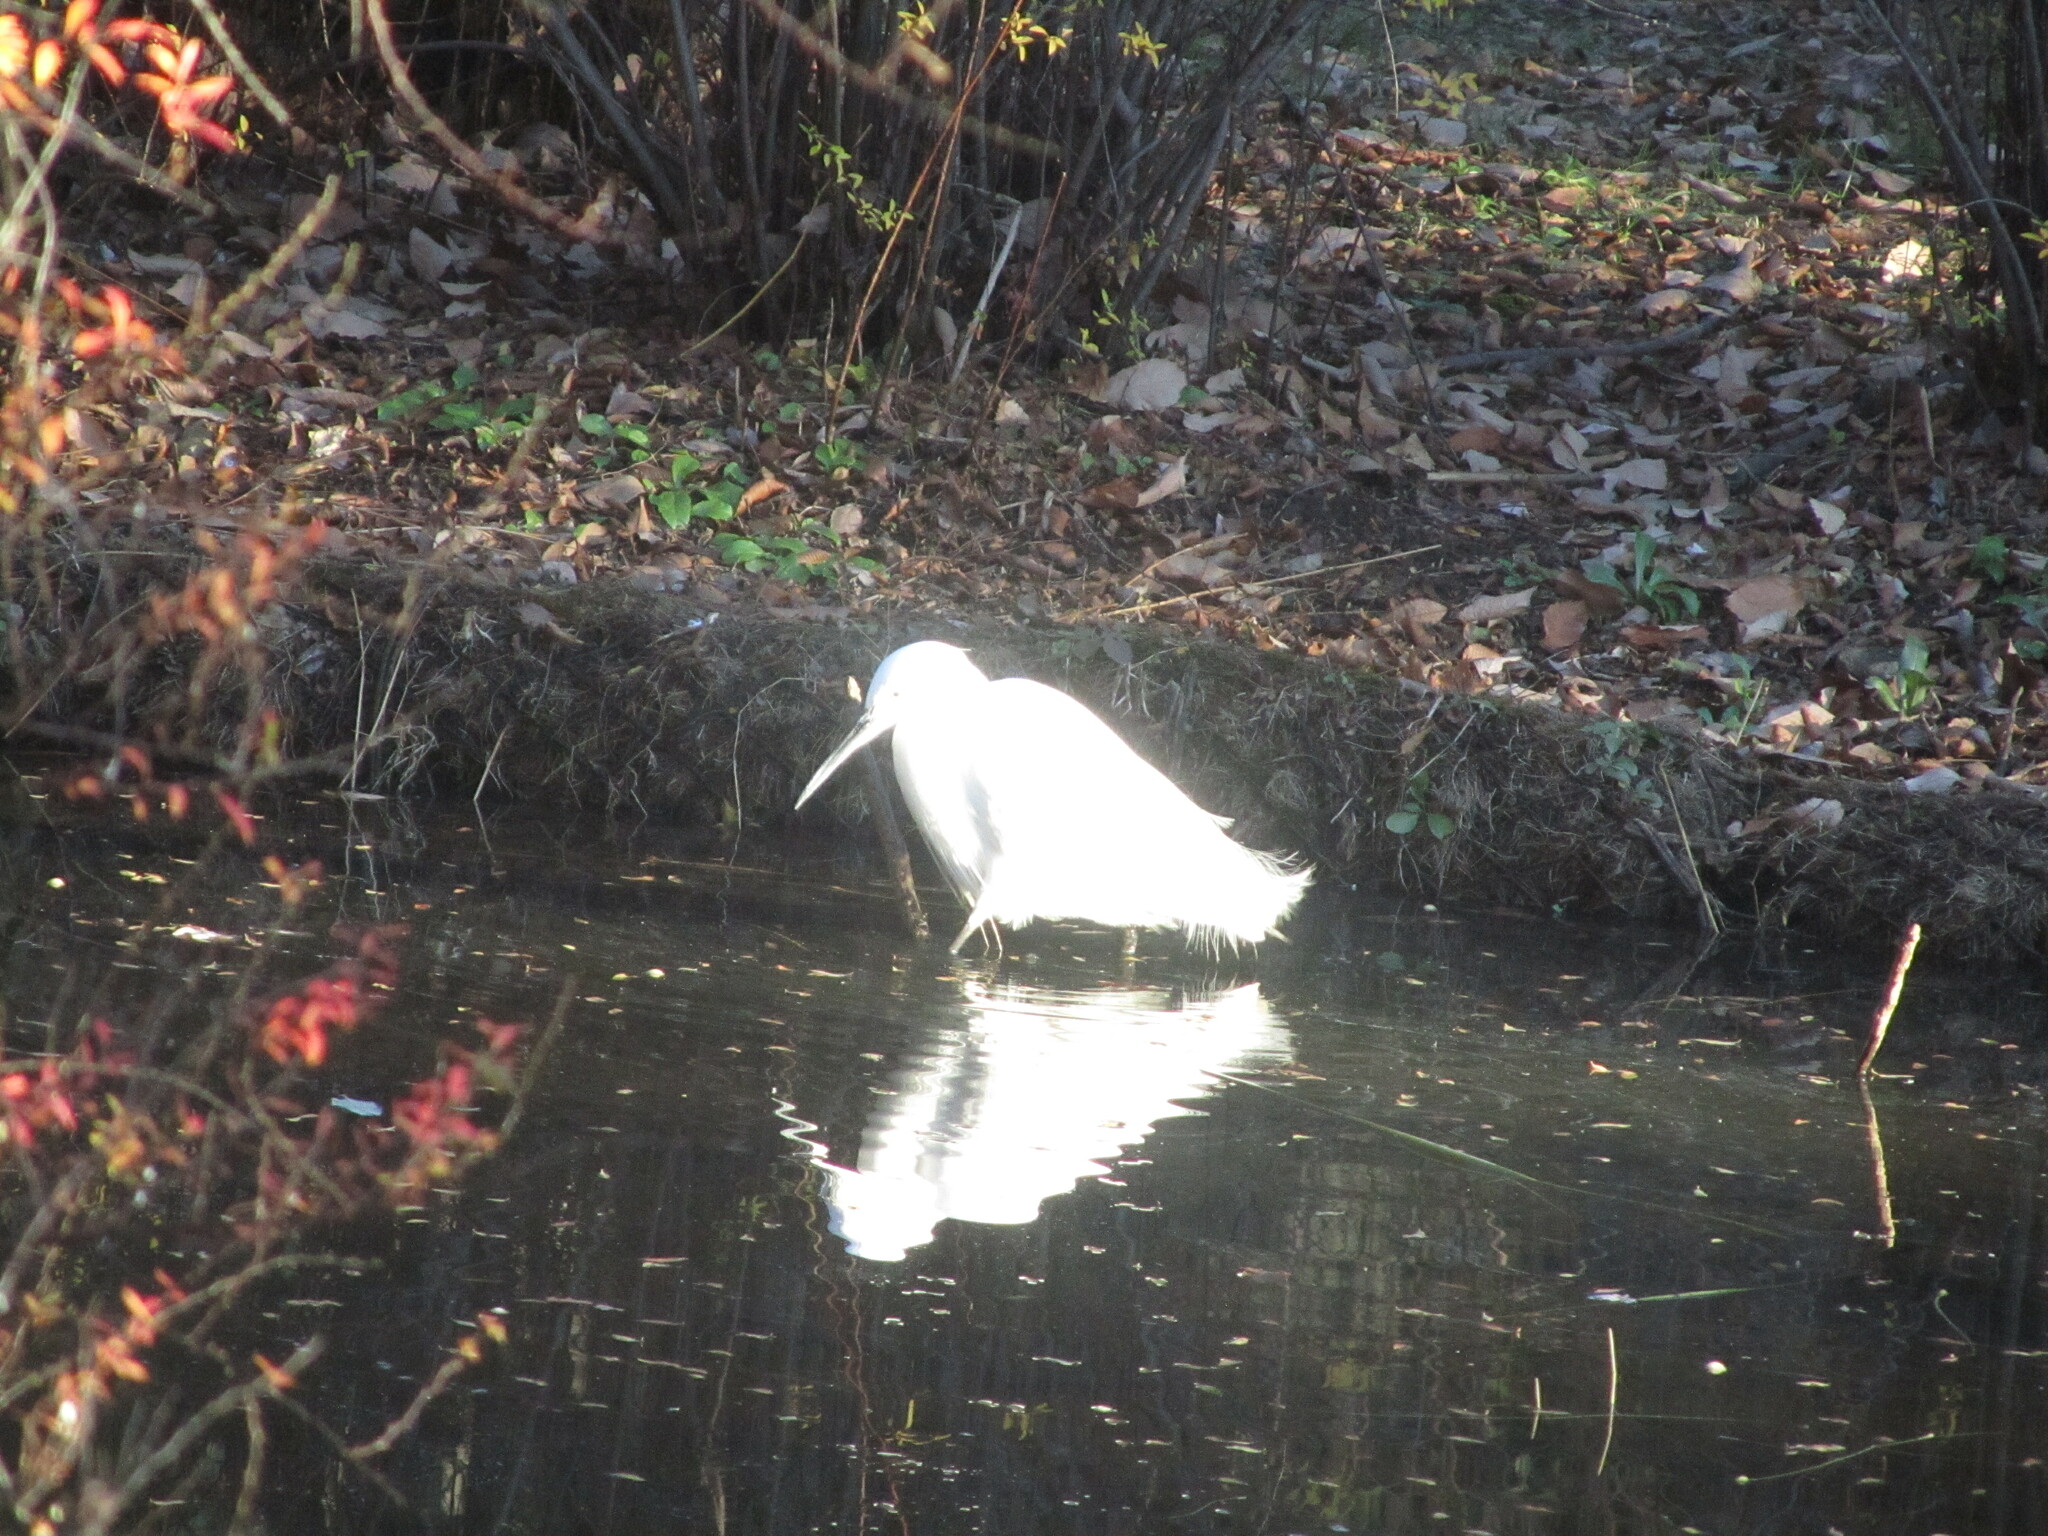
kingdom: Animalia
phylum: Chordata
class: Aves
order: Pelecaniformes
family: Ardeidae
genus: Egretta
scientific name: Egretta garzetta
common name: Little egret
